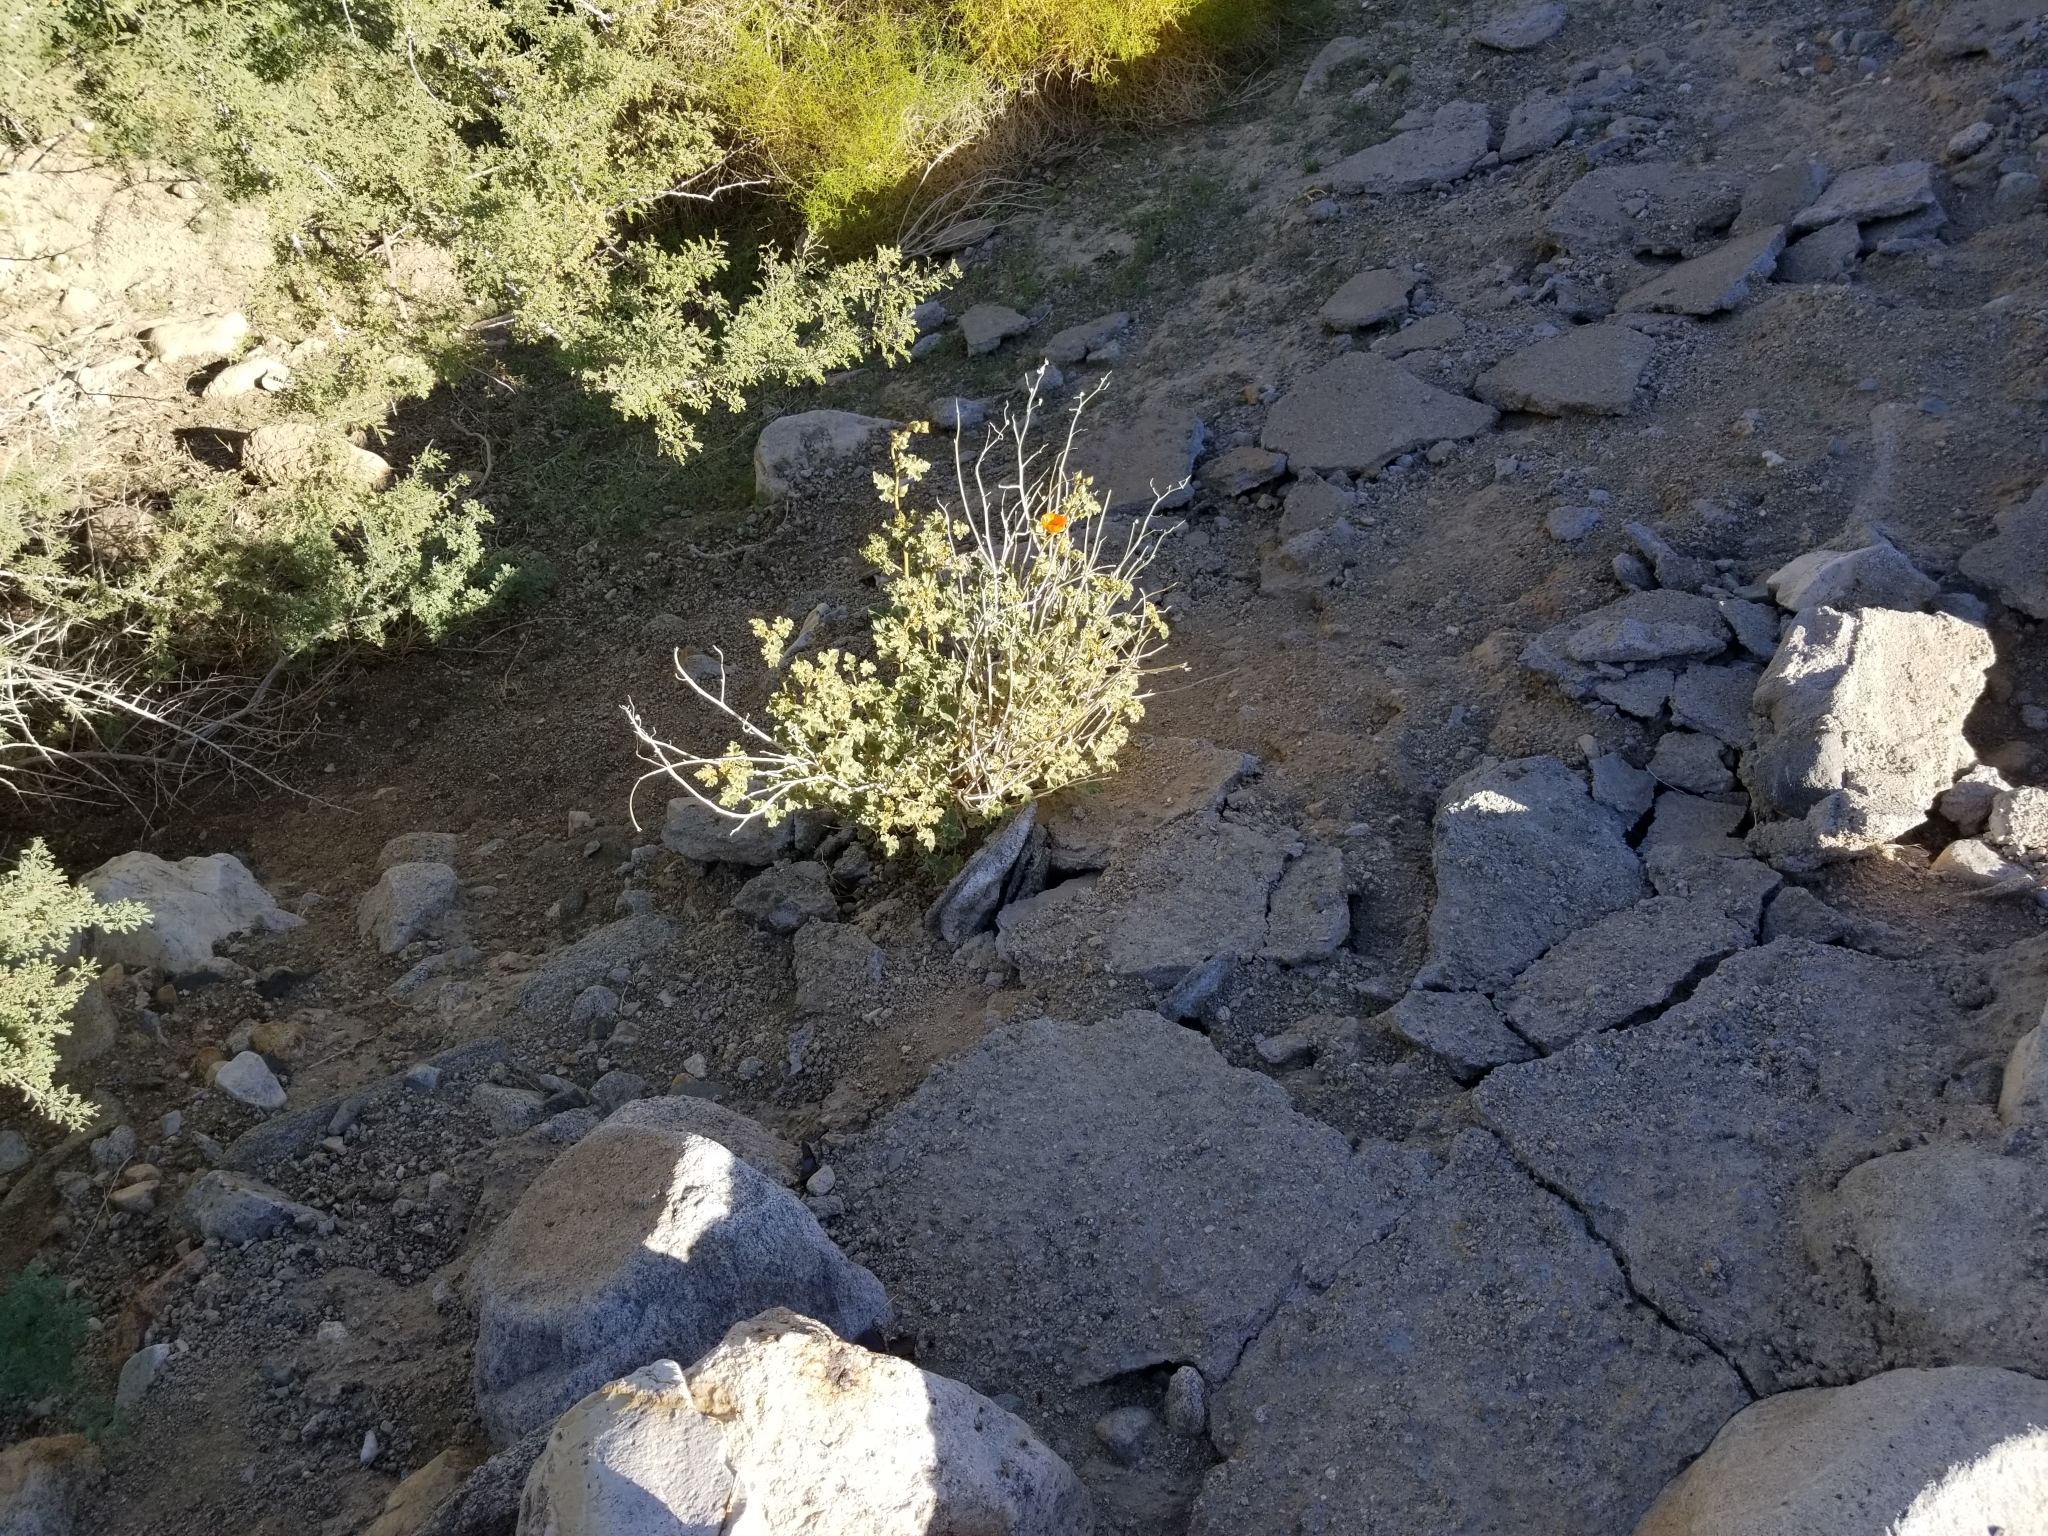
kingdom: Plantae
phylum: Tracheophyta
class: Magnoliopsida
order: Malvales
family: Malvaceae
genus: Sphaeralcea
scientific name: Sphaeralcea ambigua
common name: Apricot globe-mallow
